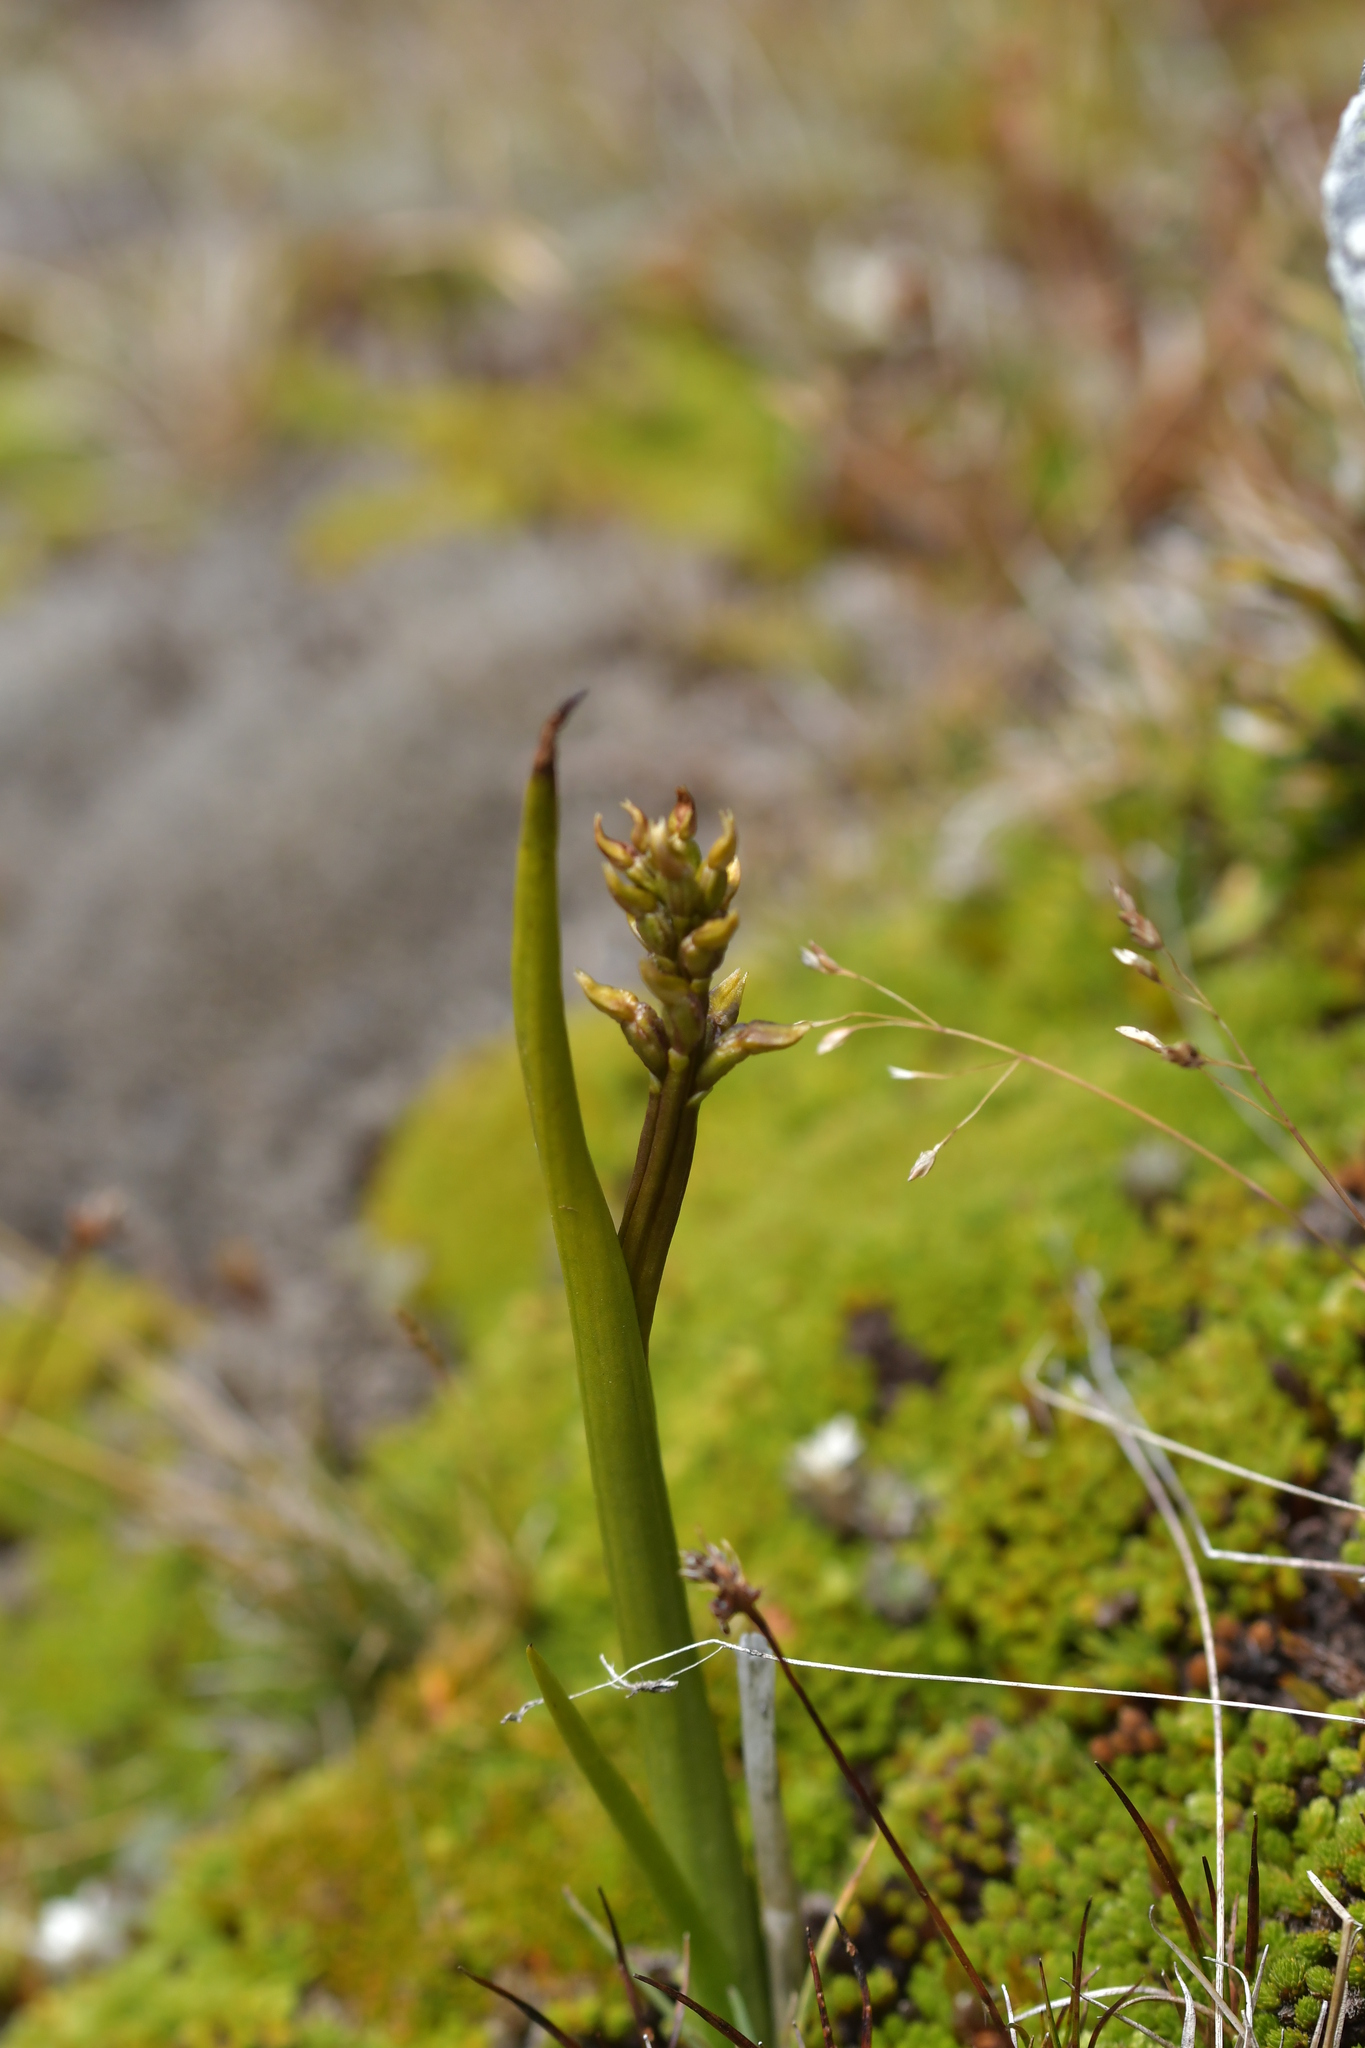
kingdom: Plantae
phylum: Tracheophyta
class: Liliopsida
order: Asparagales
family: Orchidaceae
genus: Prasophyllum
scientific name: Prasophyllum colensoi
